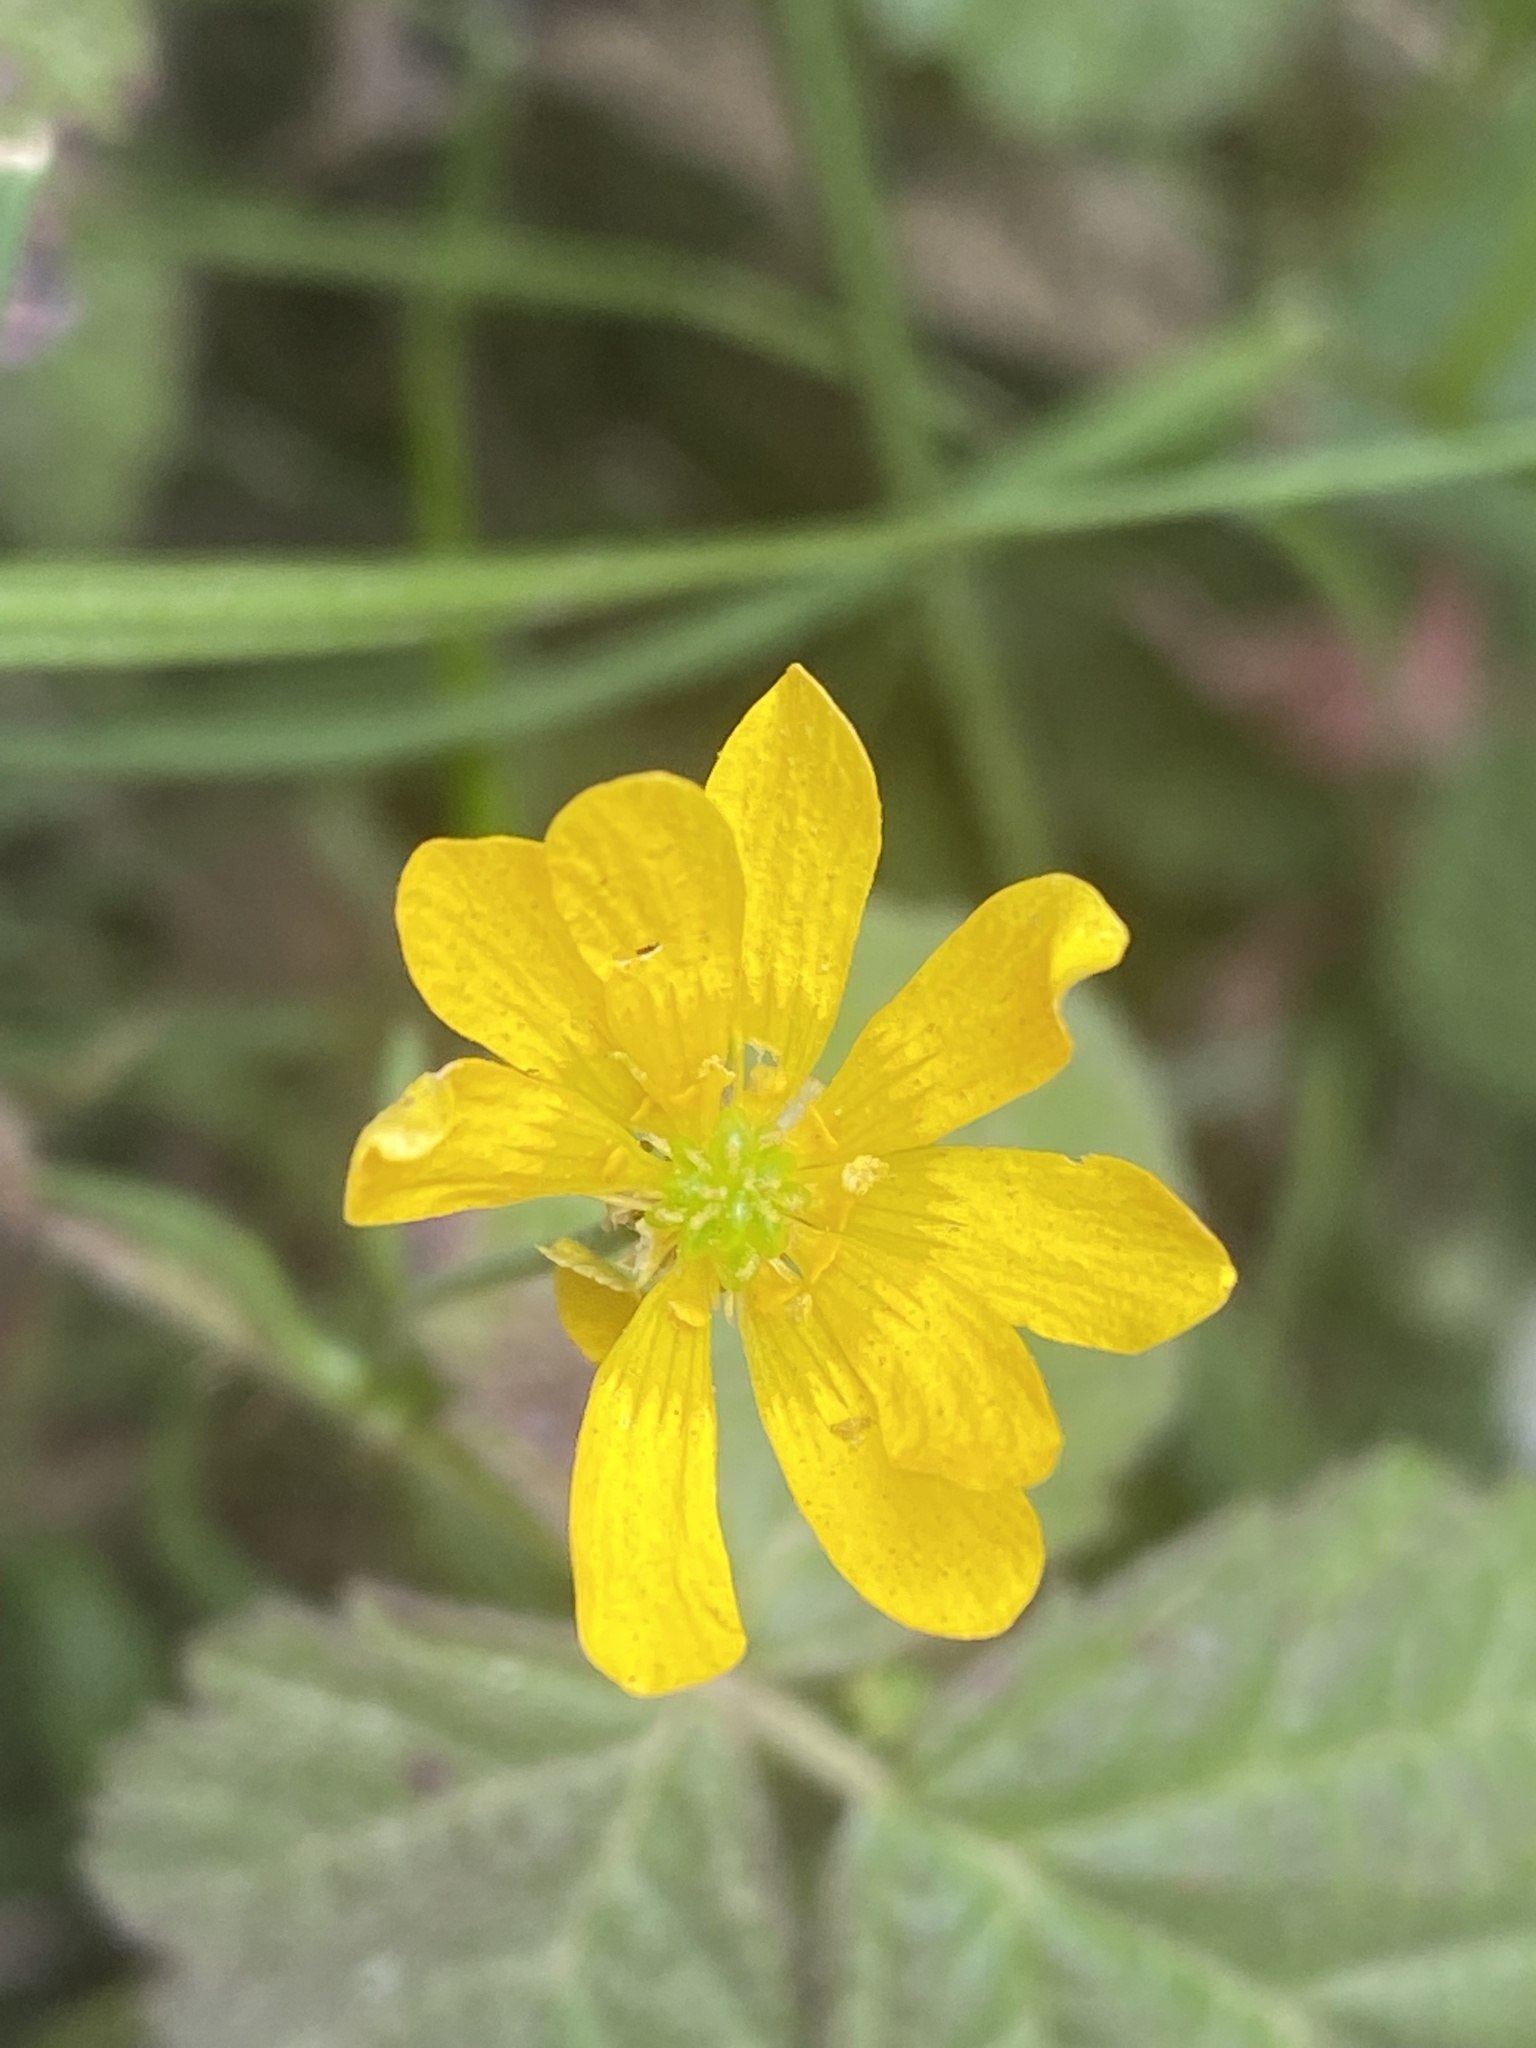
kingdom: Plantae
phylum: Tracheophyta
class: Magnoliopsida
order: Ranunculales
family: Ranunculaceae
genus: Ranunculus
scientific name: Ranunculus californicus
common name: California buttercup
